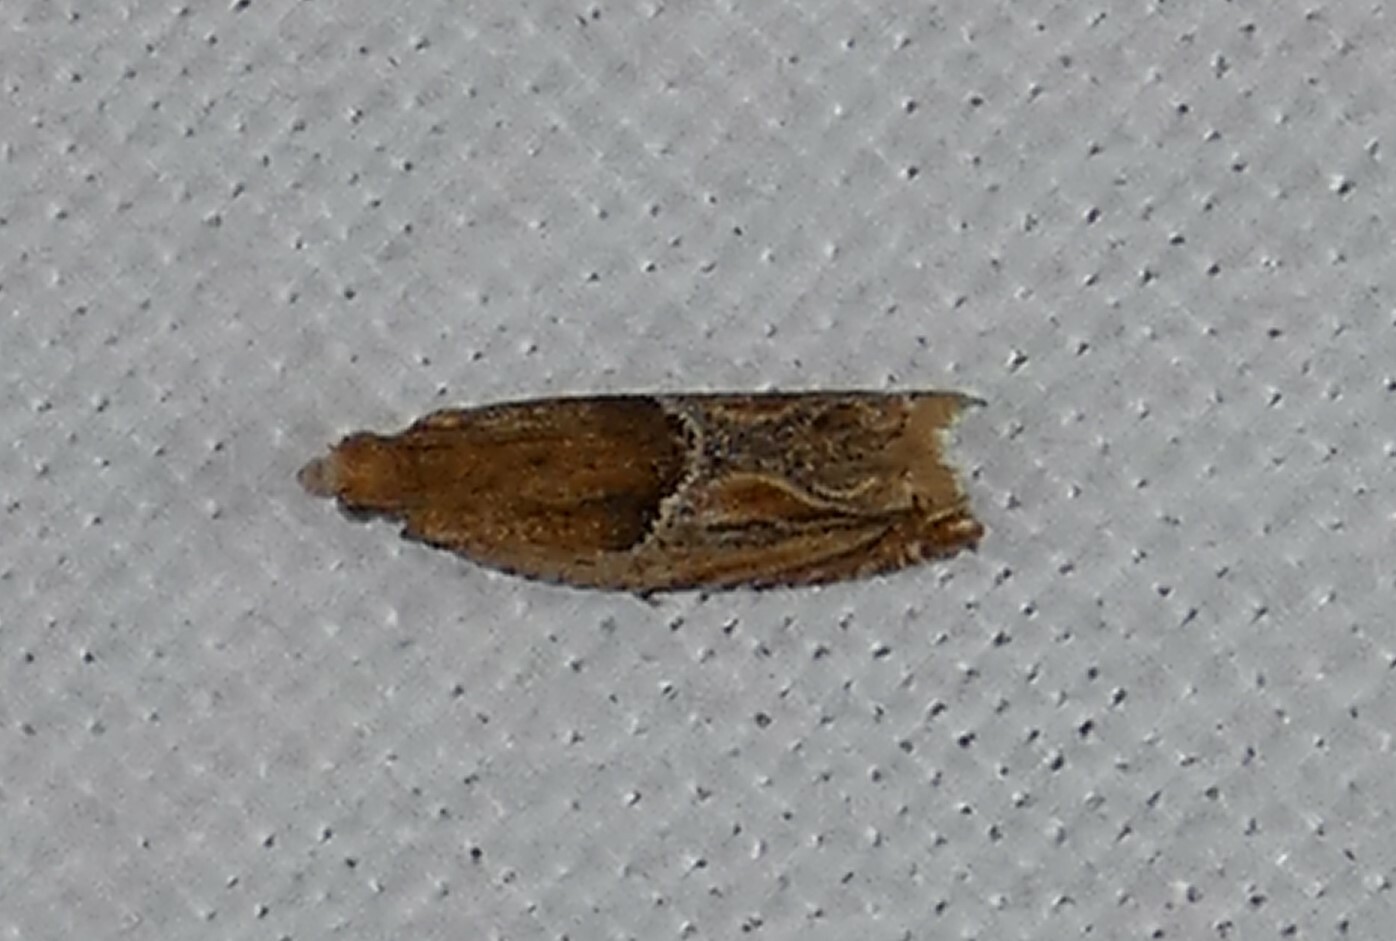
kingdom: Animalia
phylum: Arthropoda
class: Insecta
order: Lepidoptera
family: Tortricidae
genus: Ancylis
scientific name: Ancylis comptana
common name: Little roller
